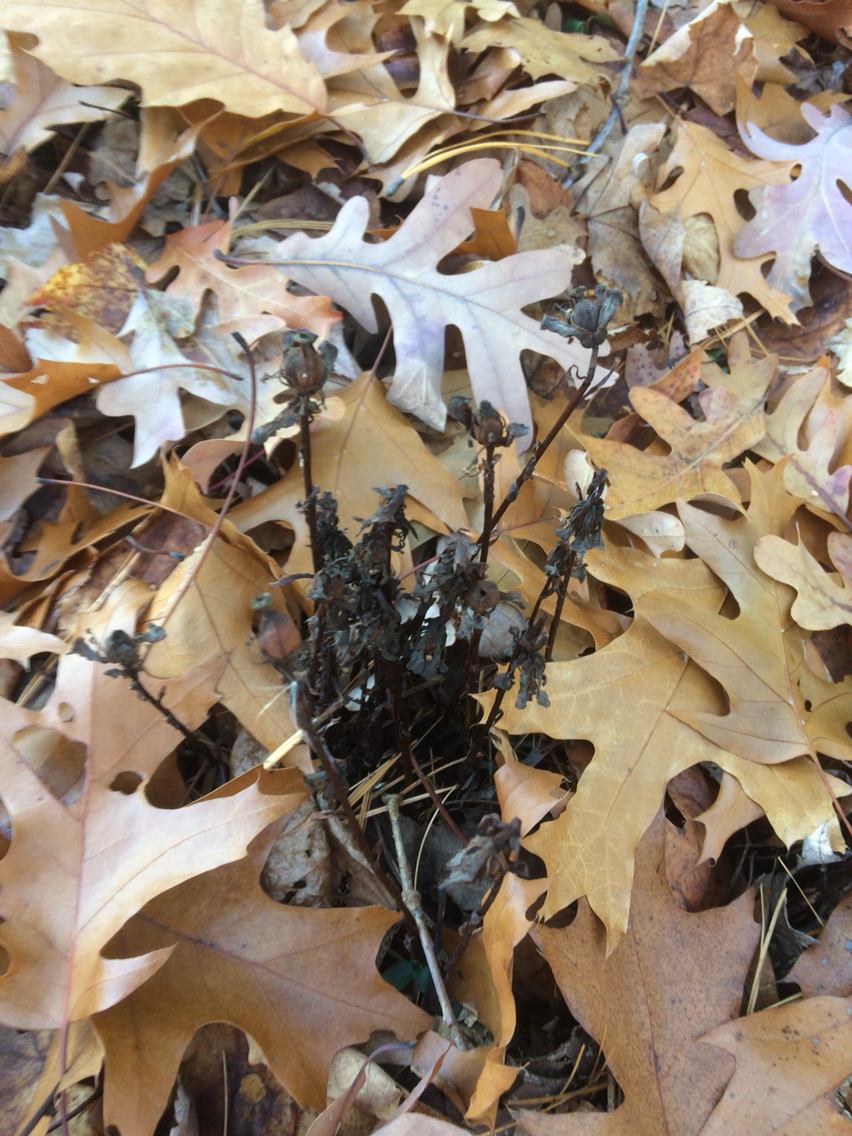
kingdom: Plantae
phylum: Tracheophyta
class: Magnoliopsida
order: Ericales
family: Ericaceae
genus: Monotropa
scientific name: Monotropa uniflora
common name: Convulsion root
